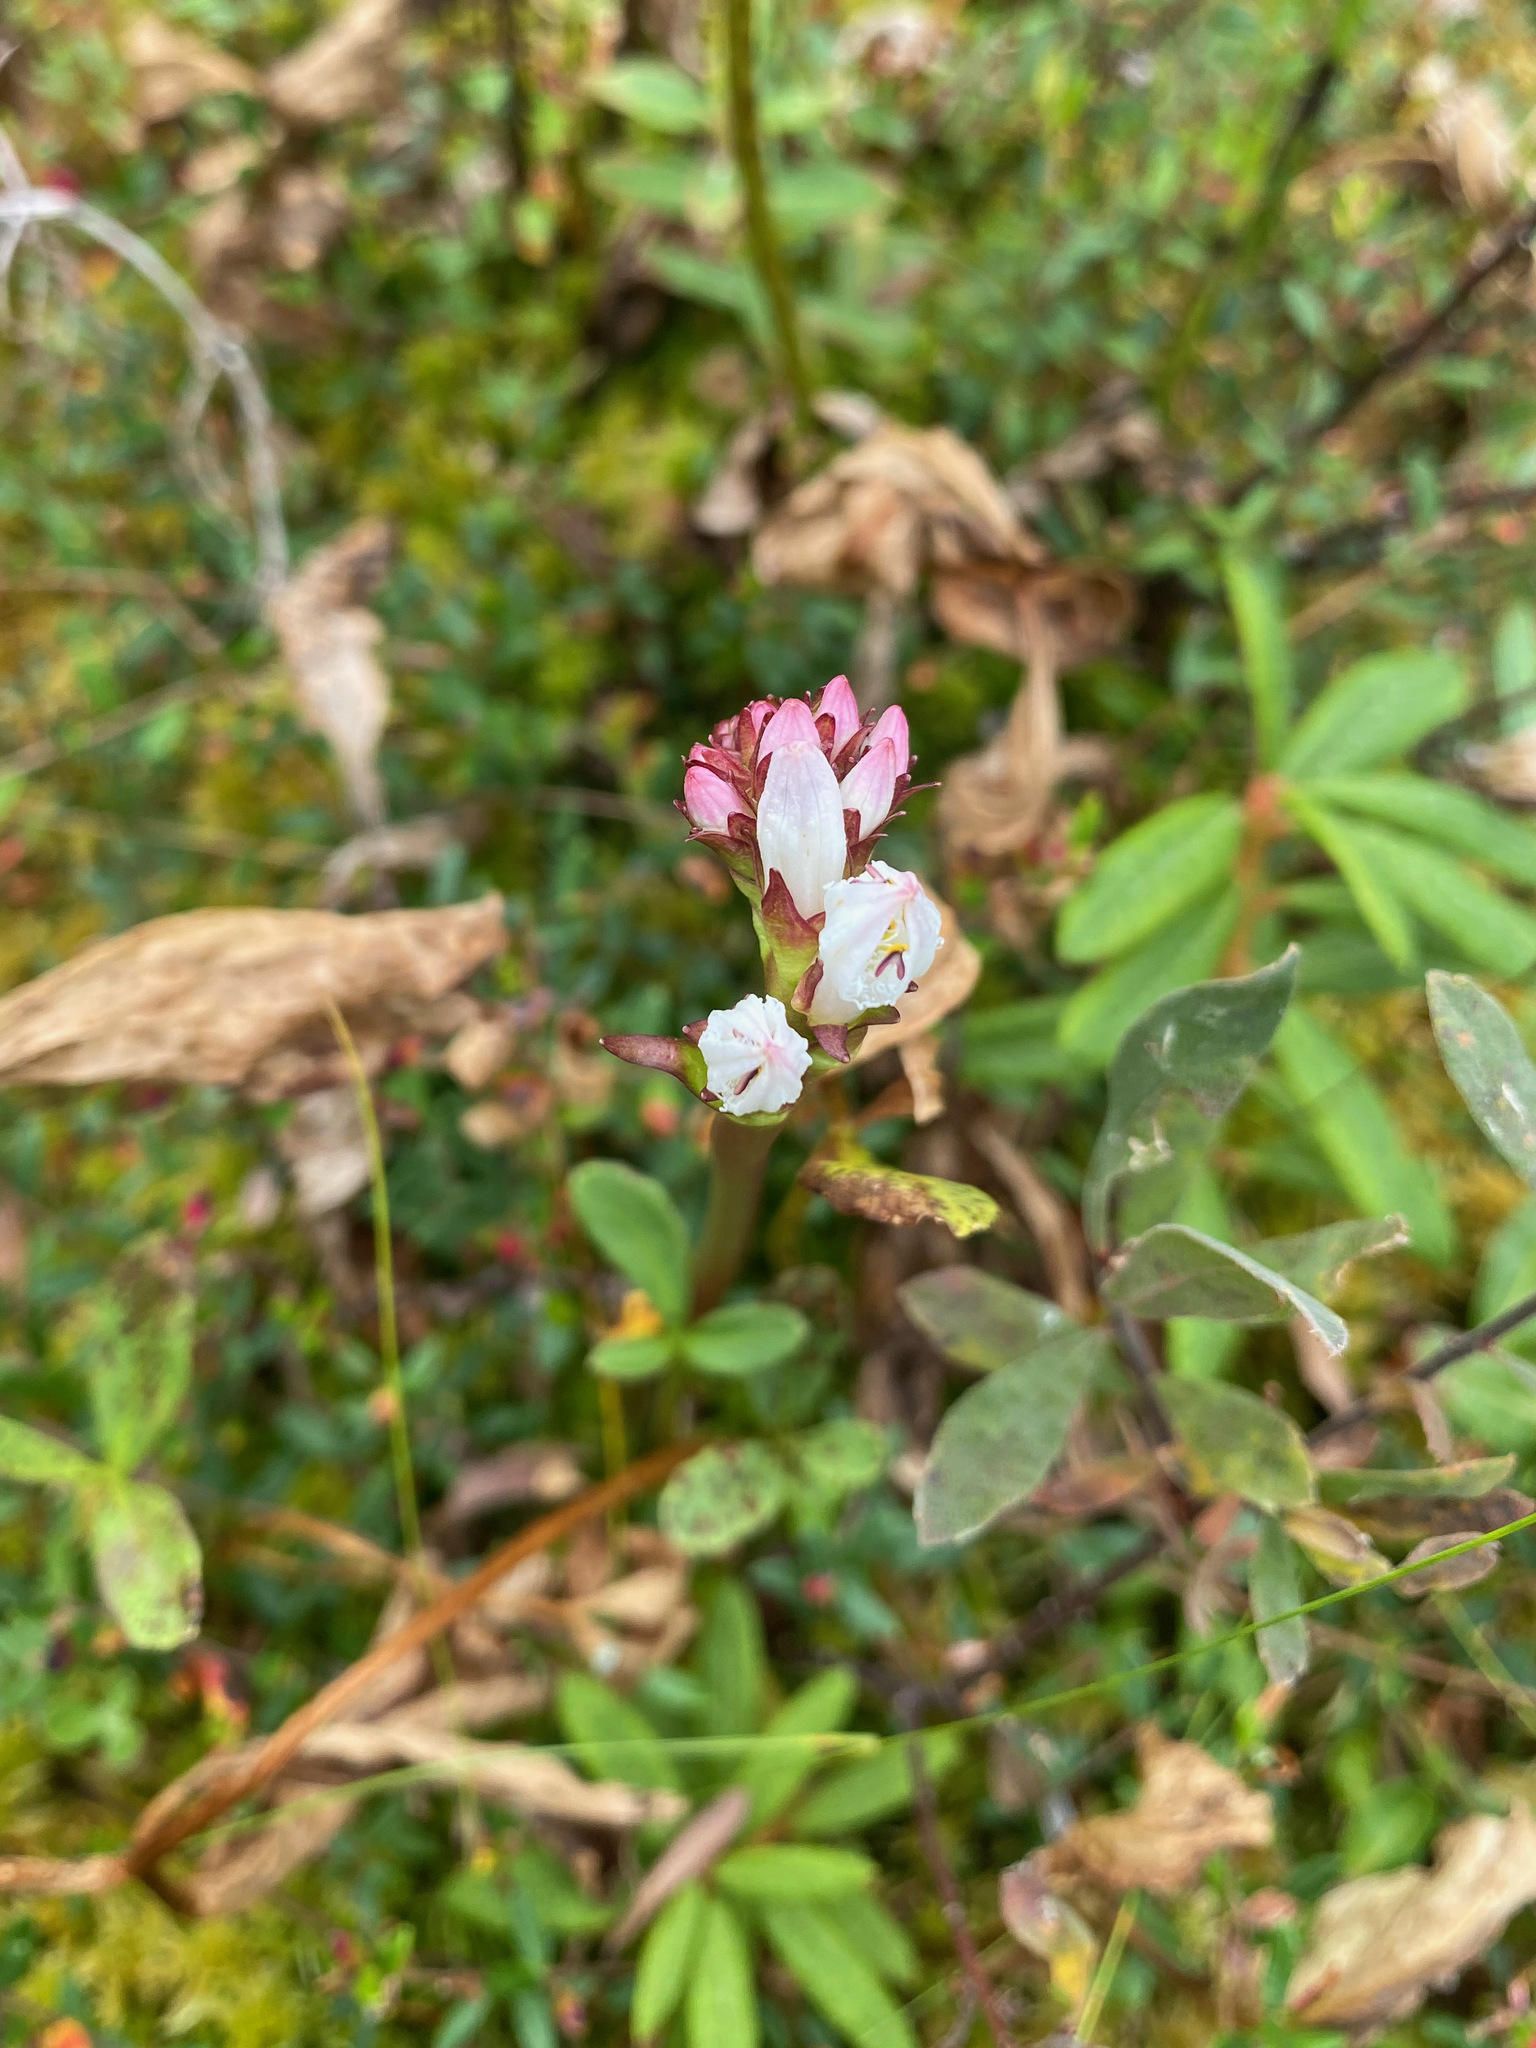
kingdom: Plantae
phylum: Tracheophyta
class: Magnoliopsida
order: Asterales
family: Menyanthaceae
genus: Menyanthes
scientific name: Menyanthes trifoliata
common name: Bogbean
